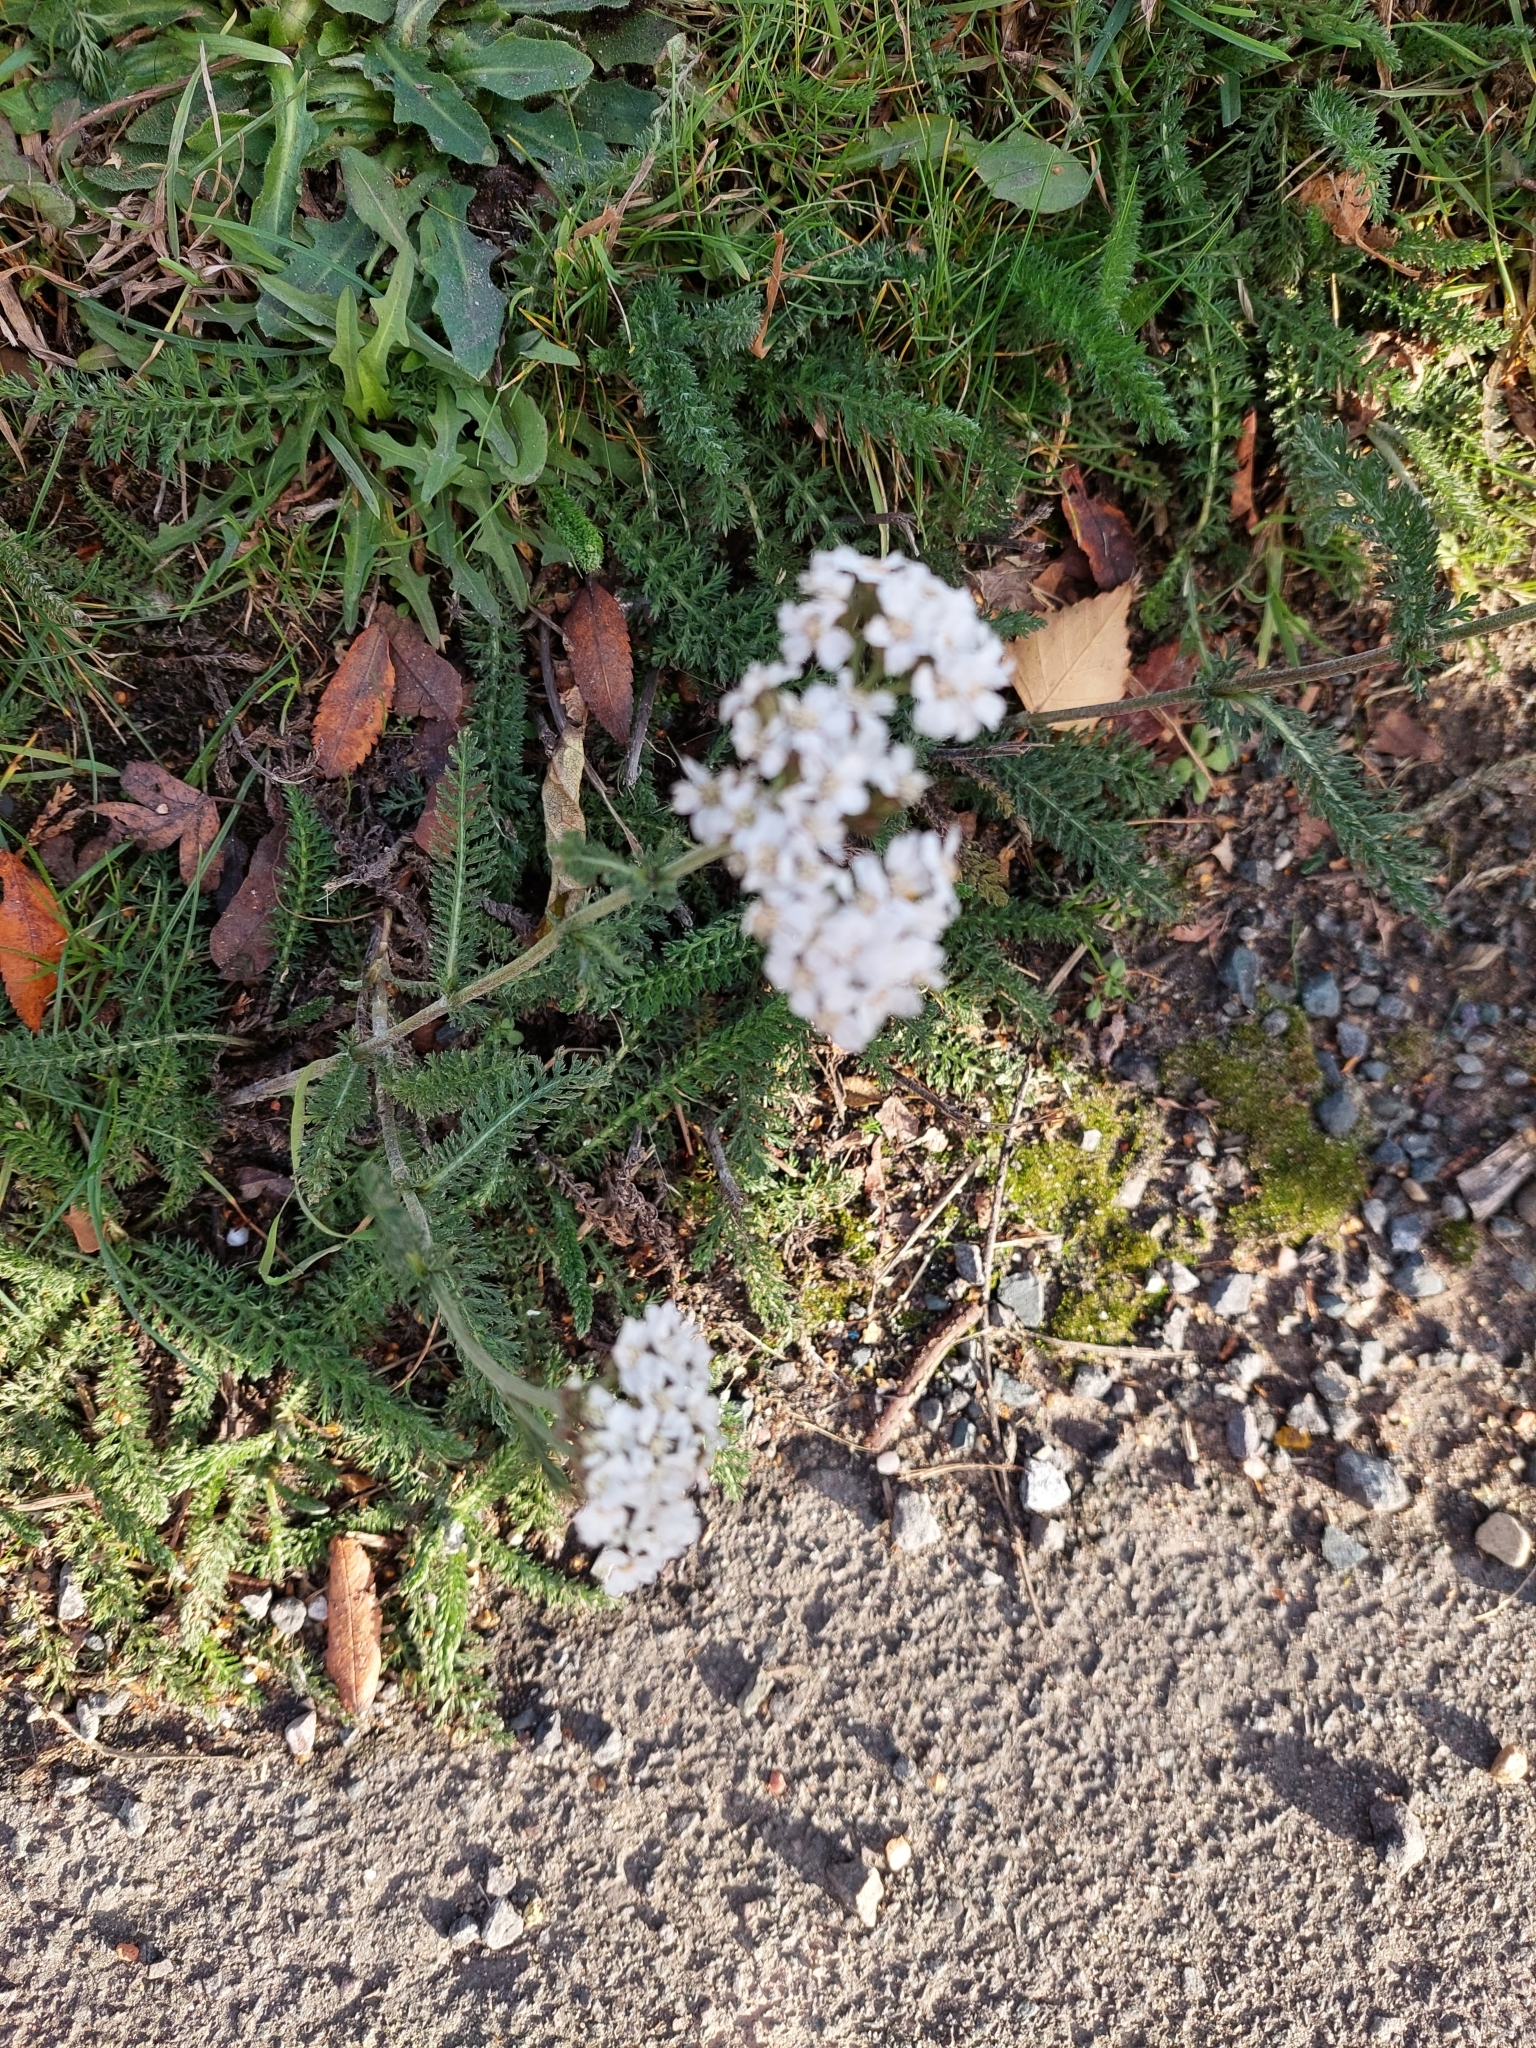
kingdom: Plantae
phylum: Tracheophyta
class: Magnoliopsida
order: Asterales
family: Asteraceae
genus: Achillea
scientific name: Achillea millefolium
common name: Yarrow
